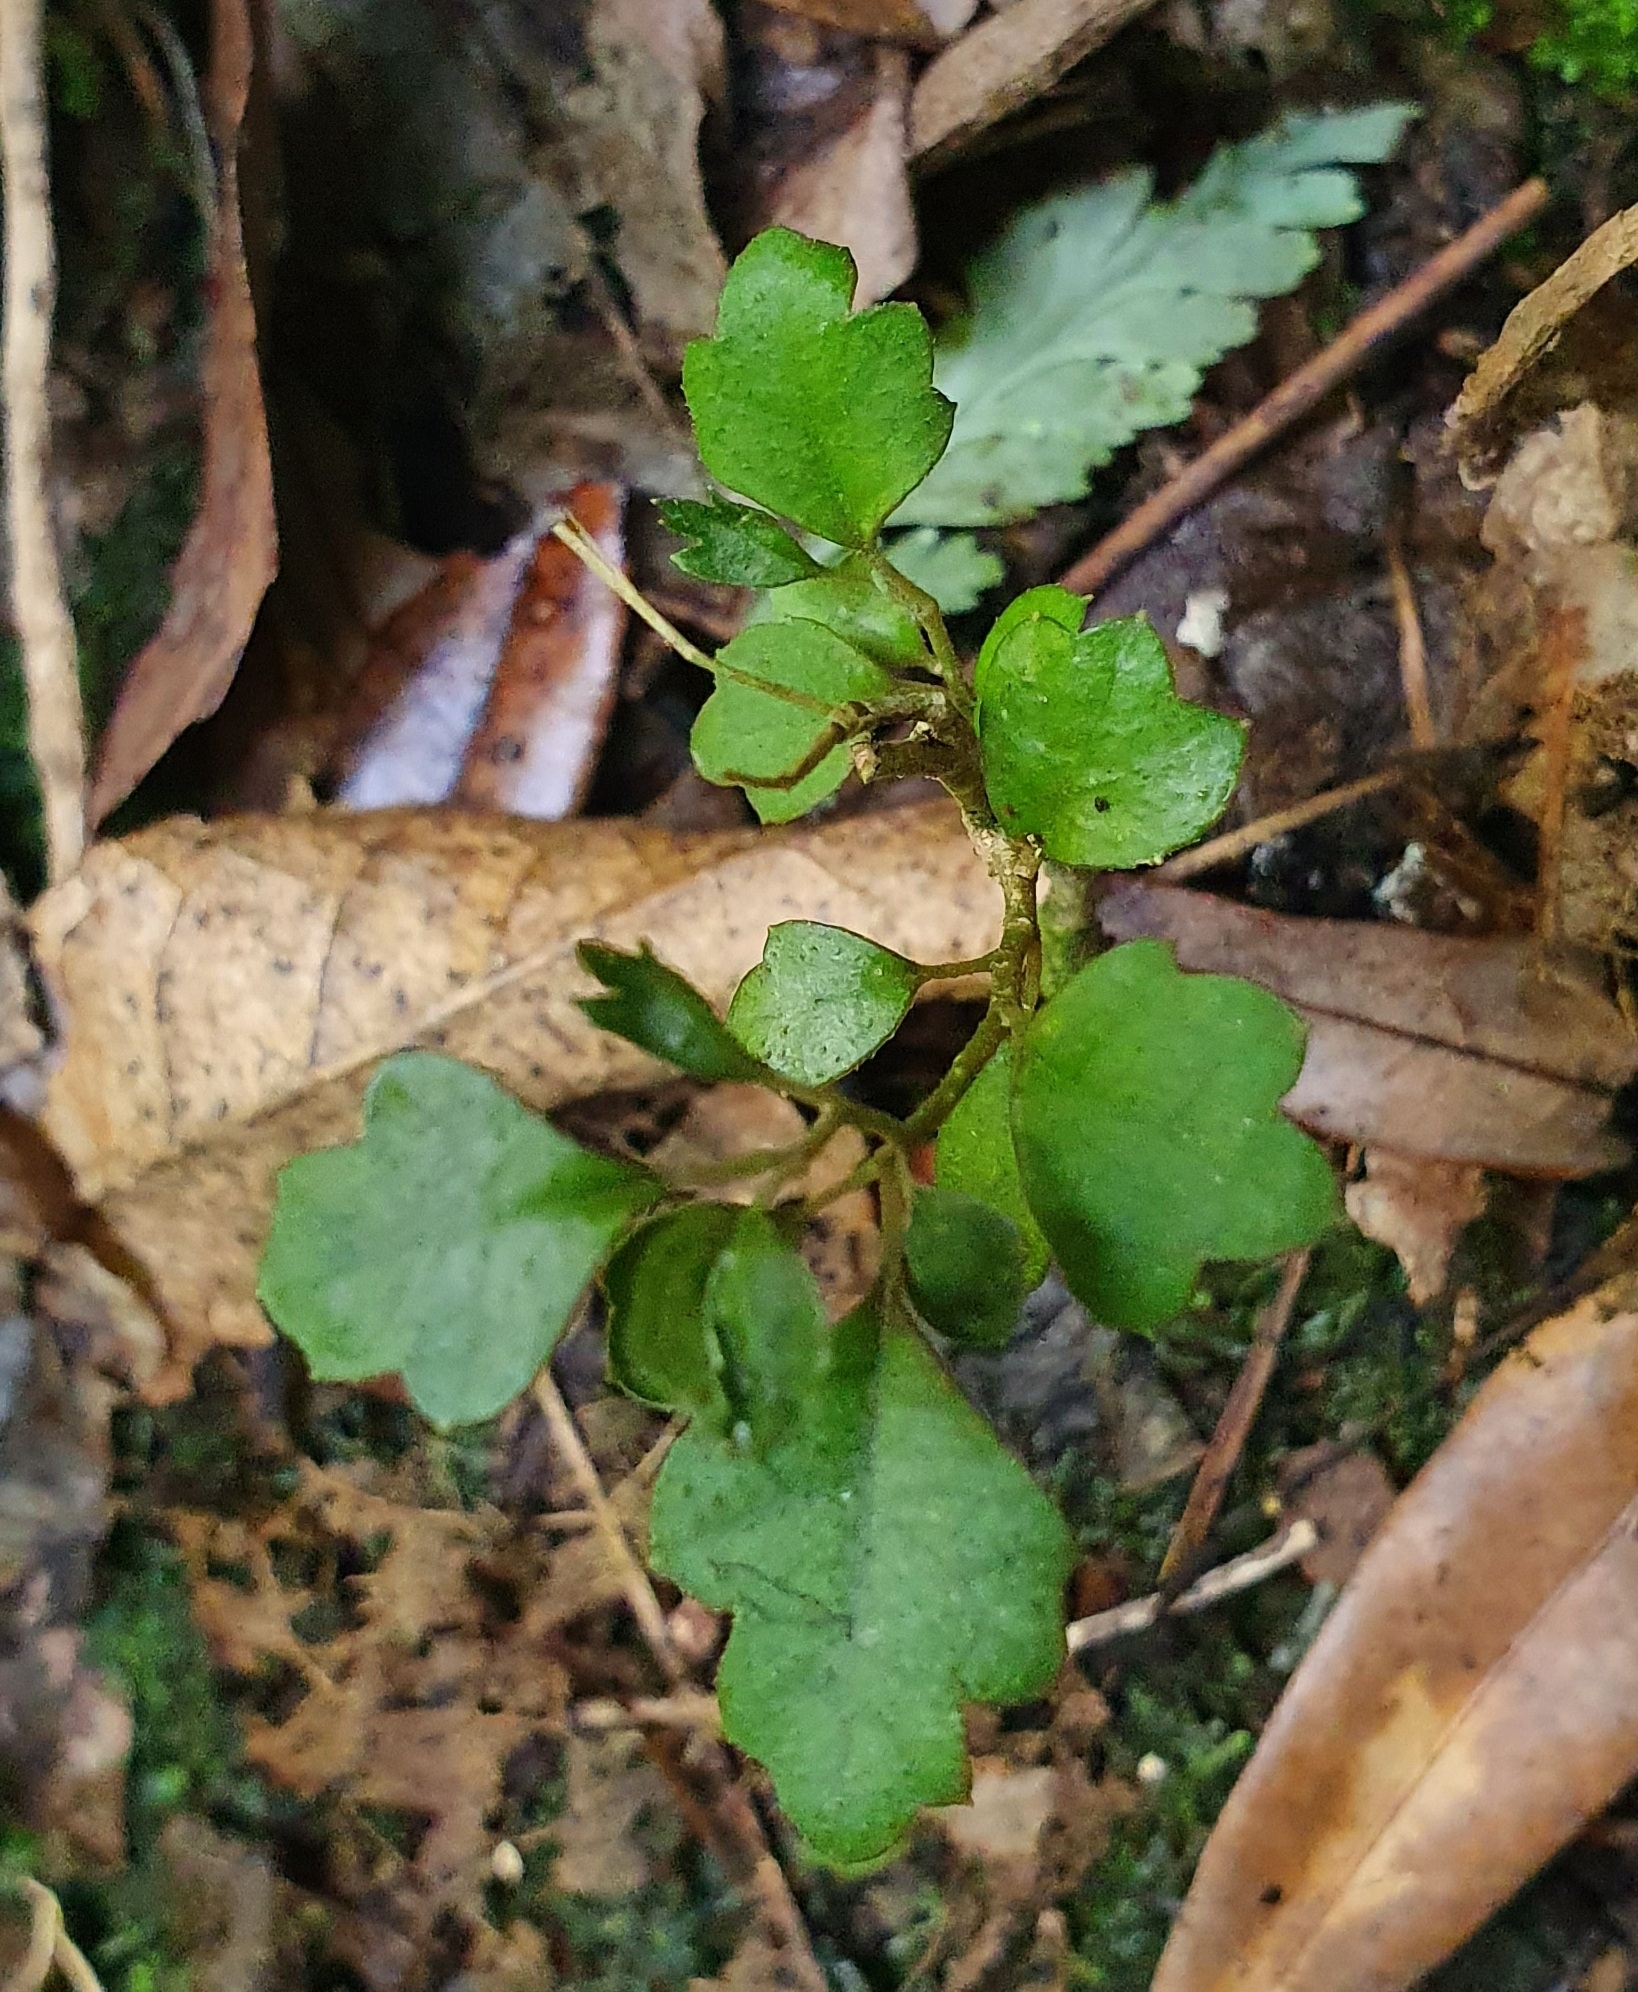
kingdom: Plantae
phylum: Tracheophyta
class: Magnoliopsida
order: Apiales
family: Pennantiaceae
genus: Pennantia
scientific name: Pennantia corymbosa
